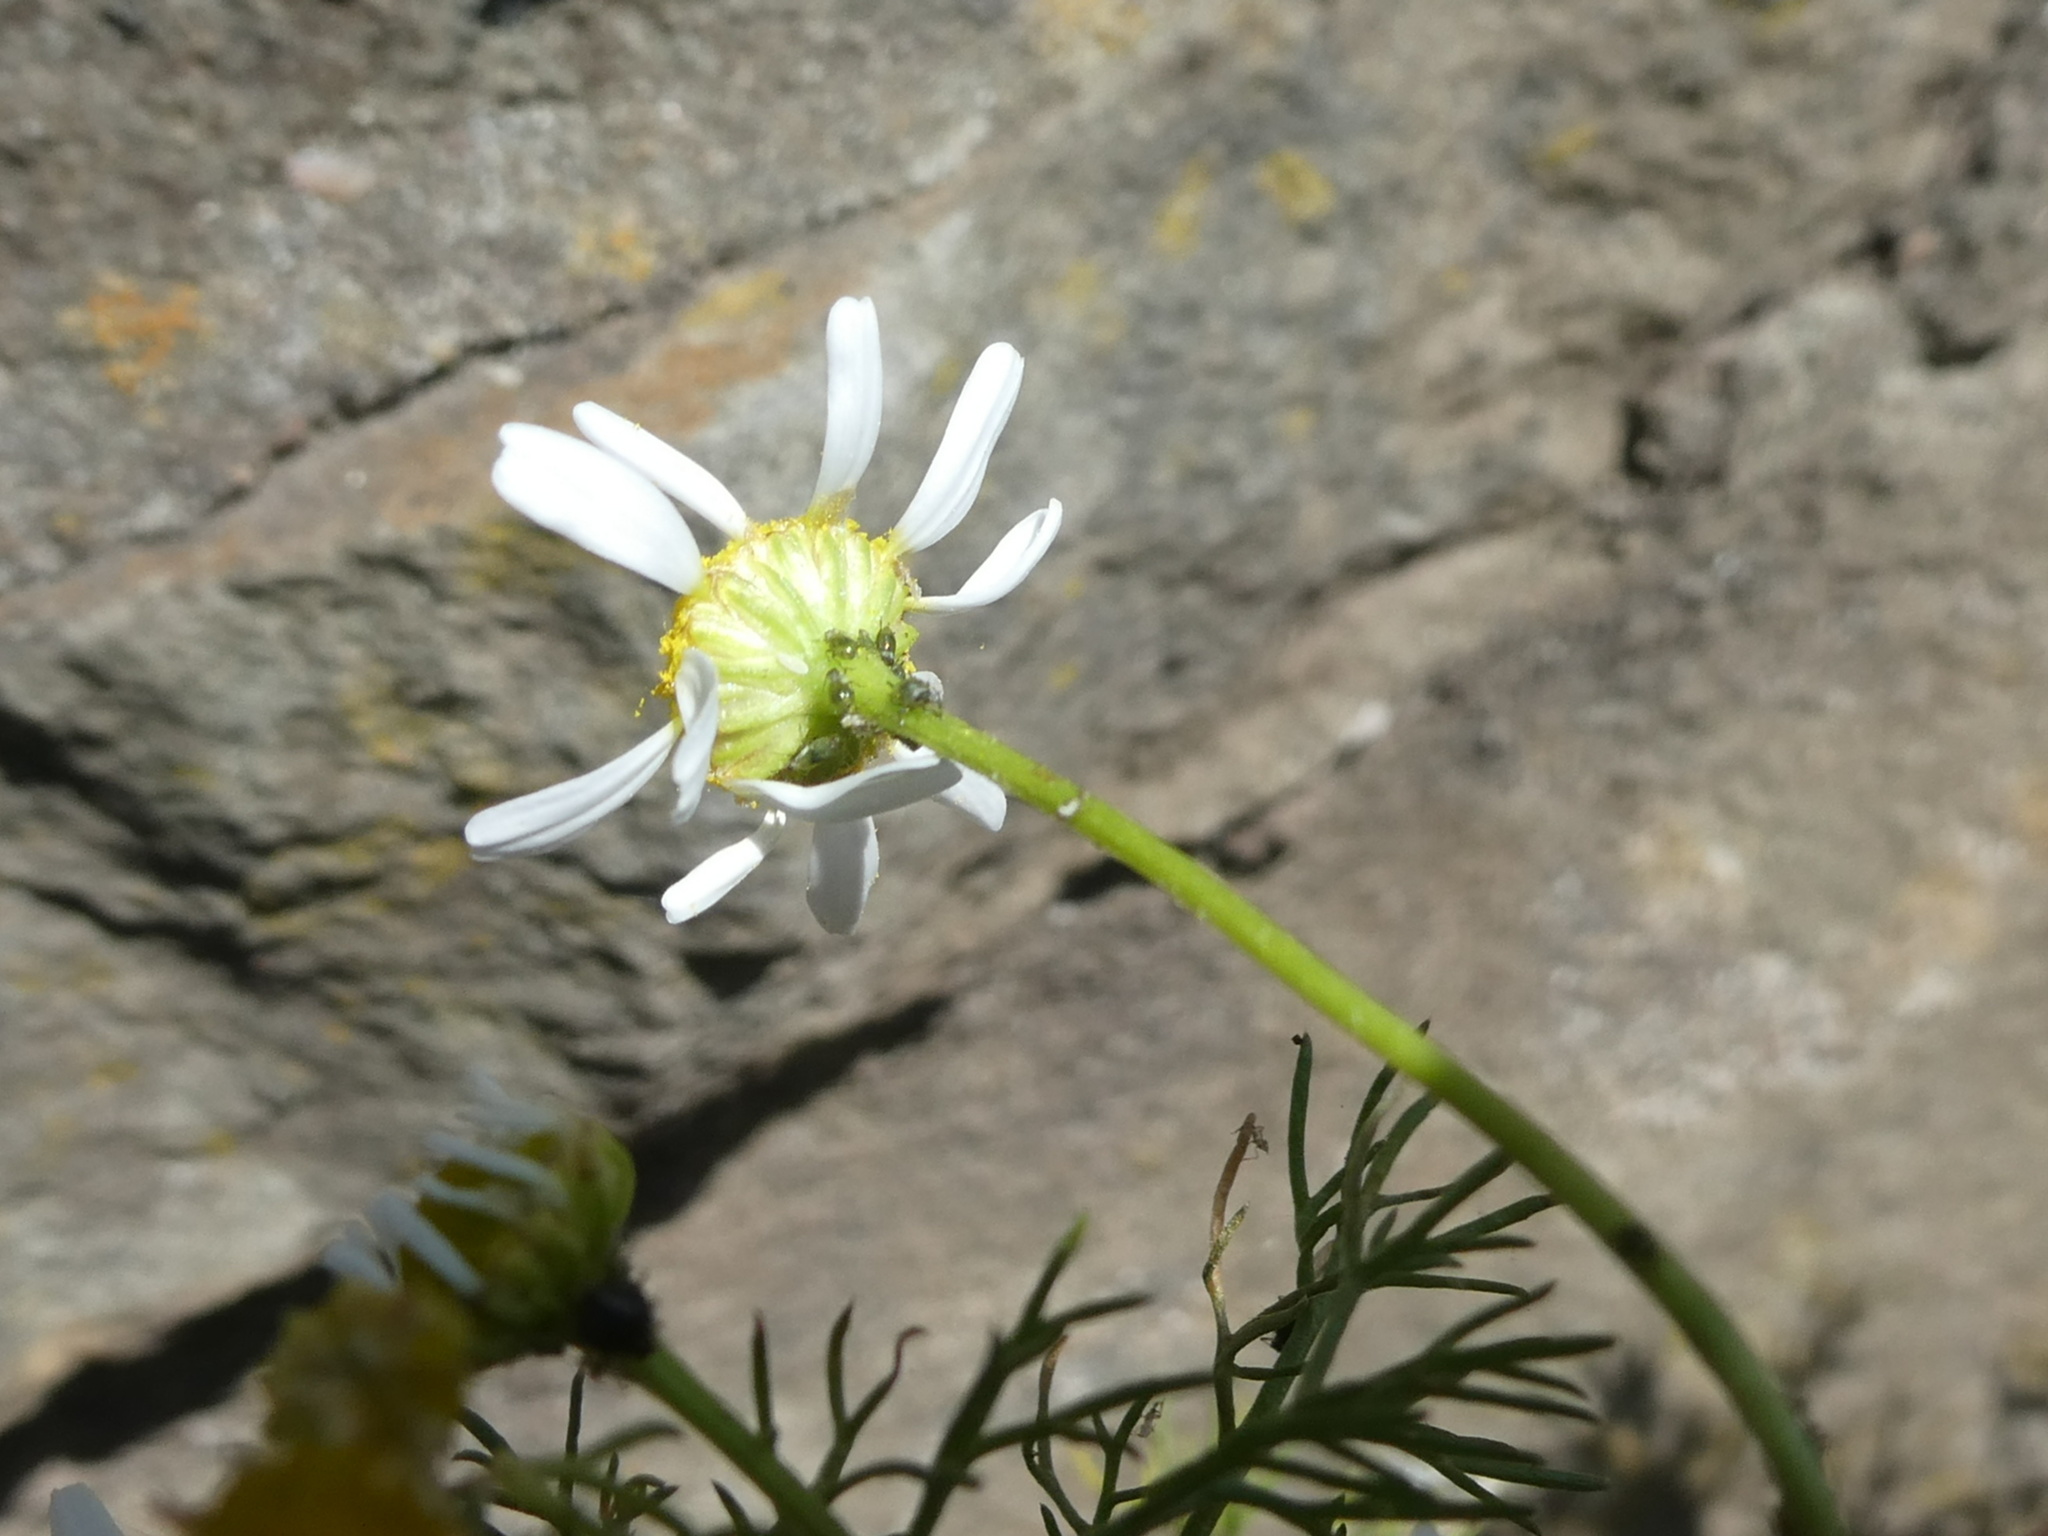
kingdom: Plantae
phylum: Tracheophyta
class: Magnoliopsida
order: Asterales
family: Asteraceae
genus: Matricaria
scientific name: Matricaria chamomilla
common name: Scented mayweed
